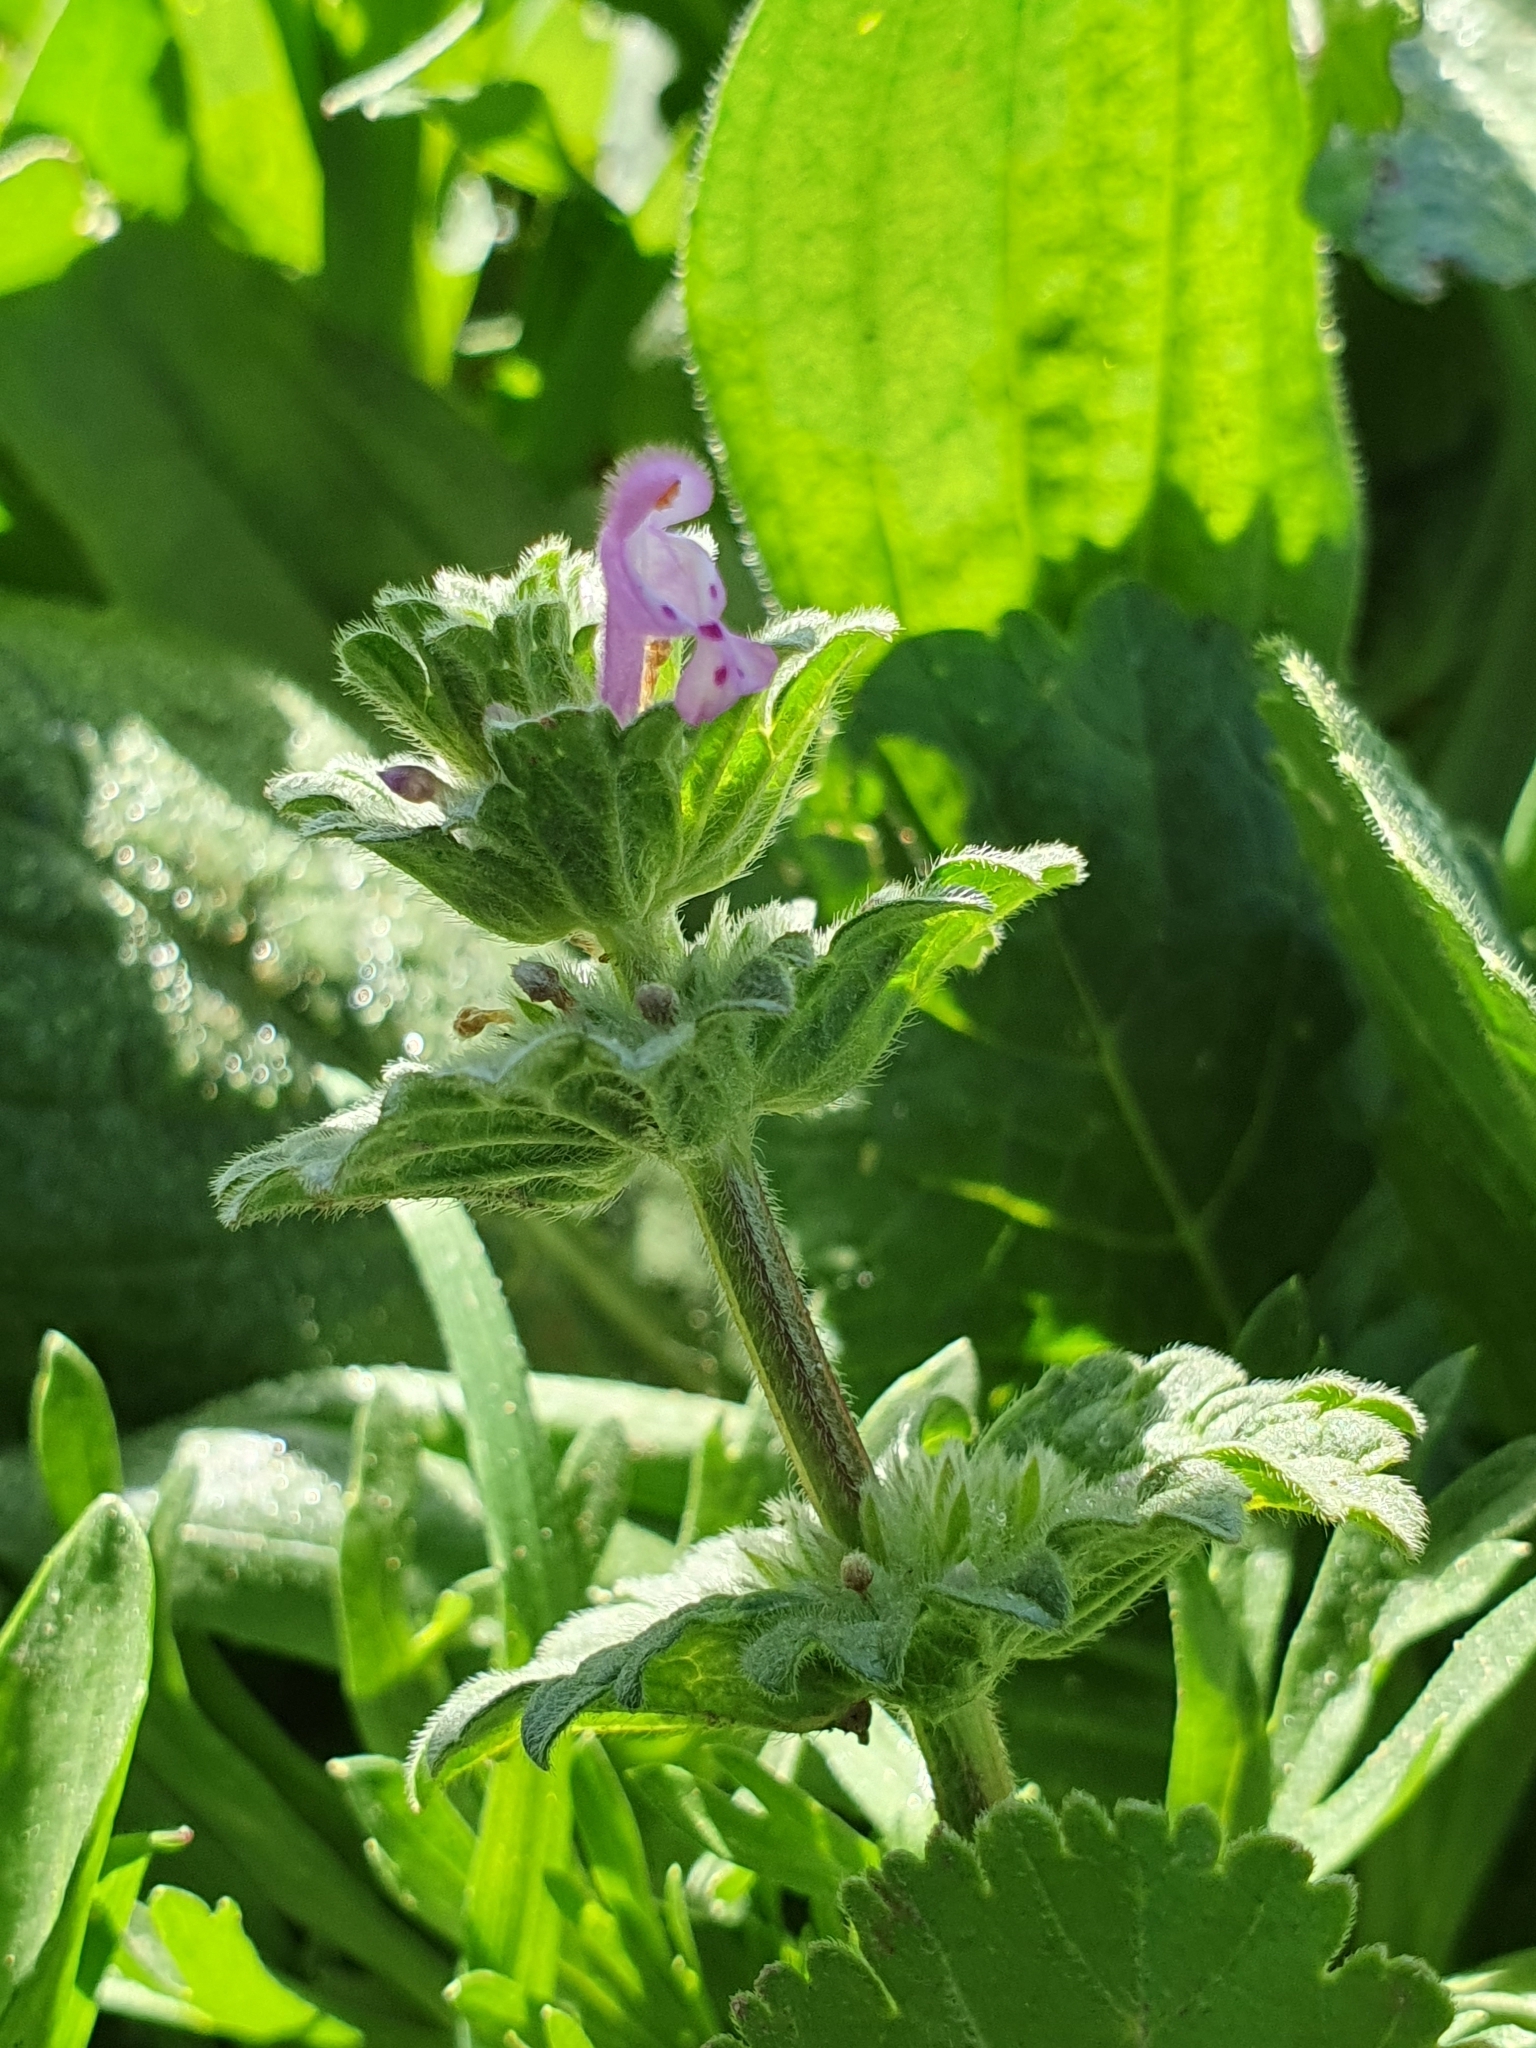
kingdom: Plantae
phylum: Tracheophyta
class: Magnoliopsida
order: Lamiales
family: Lamiaceae
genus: Lamium
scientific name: Lamium amplexicaule
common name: Henbit dead-nettle
